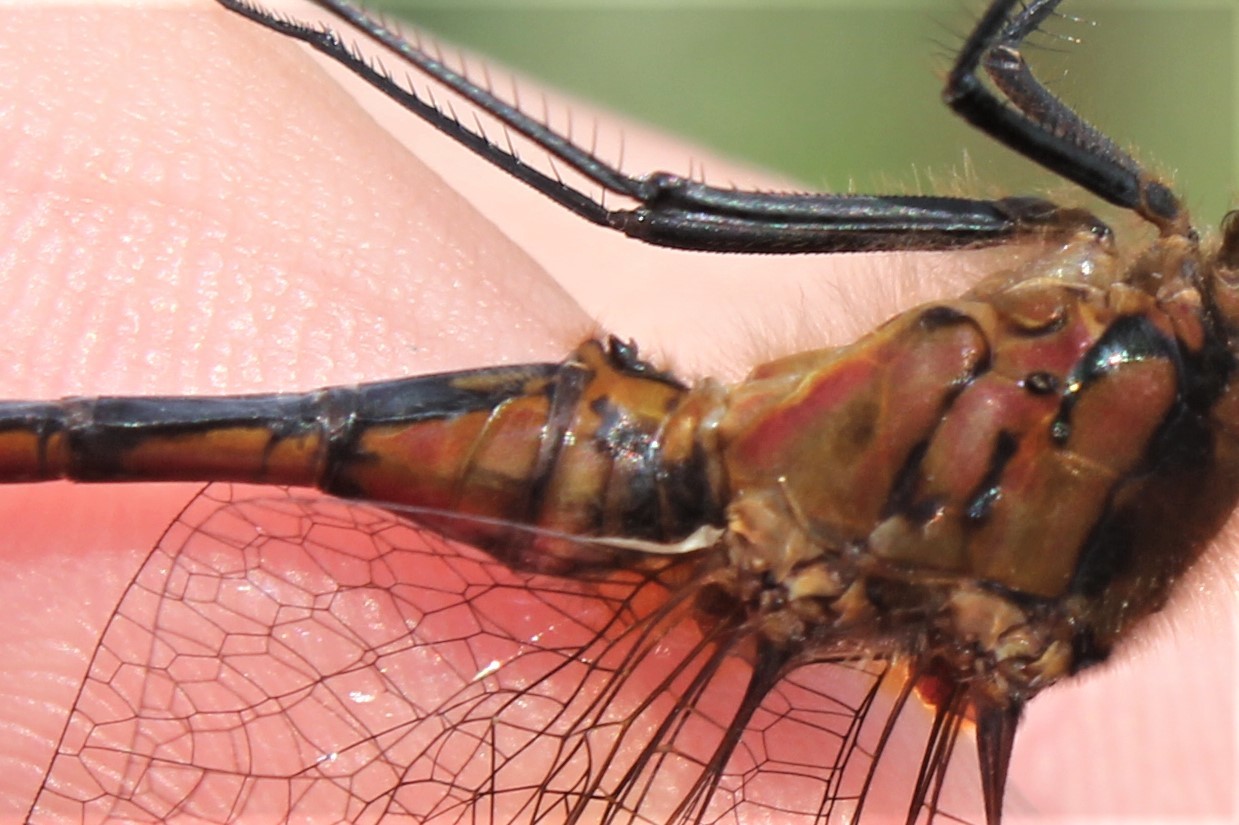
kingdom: Animalia
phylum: Arthropoda
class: Insecta
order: Odonata
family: Libellulidae
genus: Sympetrum
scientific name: Sympetrum costiferum
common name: Saffron-winged meadowhawk
